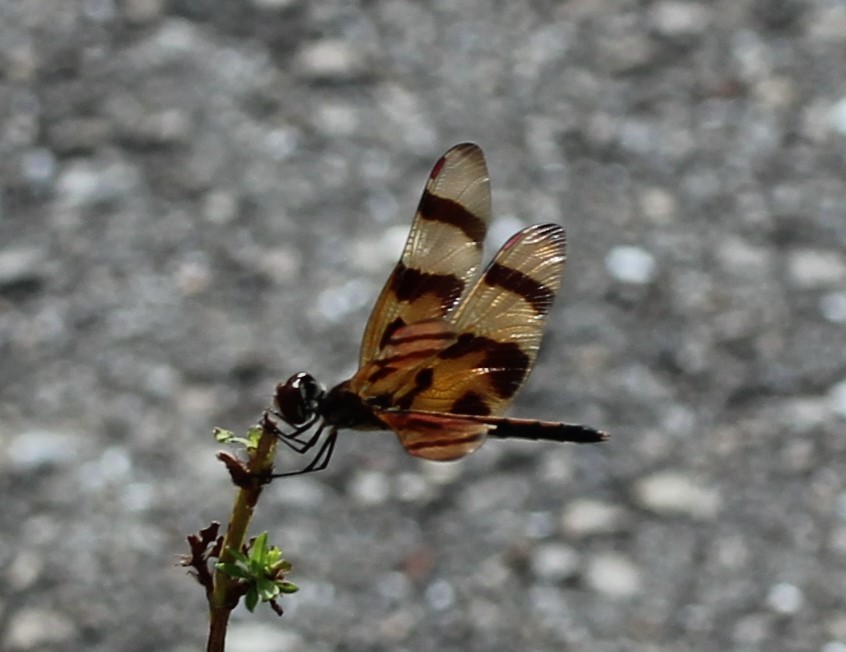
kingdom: Animalia
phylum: Arthropoda
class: Insecta
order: Odonata
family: Libellulidae
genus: Celithemis
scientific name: Celithemis eponina
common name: Halloween pennant
